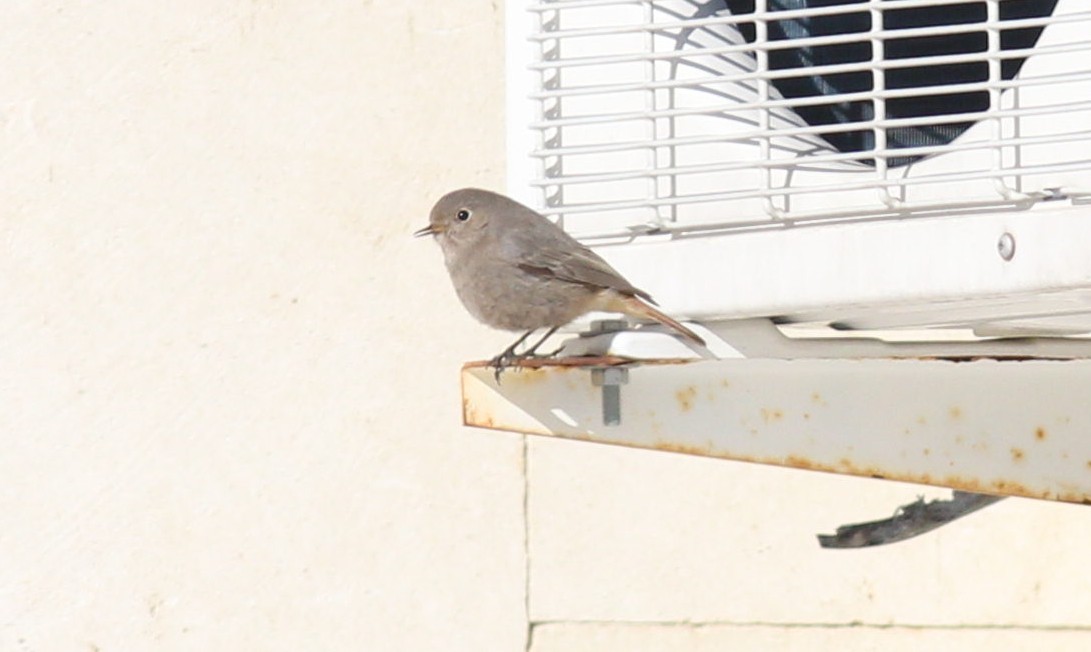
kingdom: Animalia
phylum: Chordata
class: Aves
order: Passeriformes
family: Muscicapidae
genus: Phoenicurus
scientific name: Phoenicurus ochruros
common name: Black redstart
